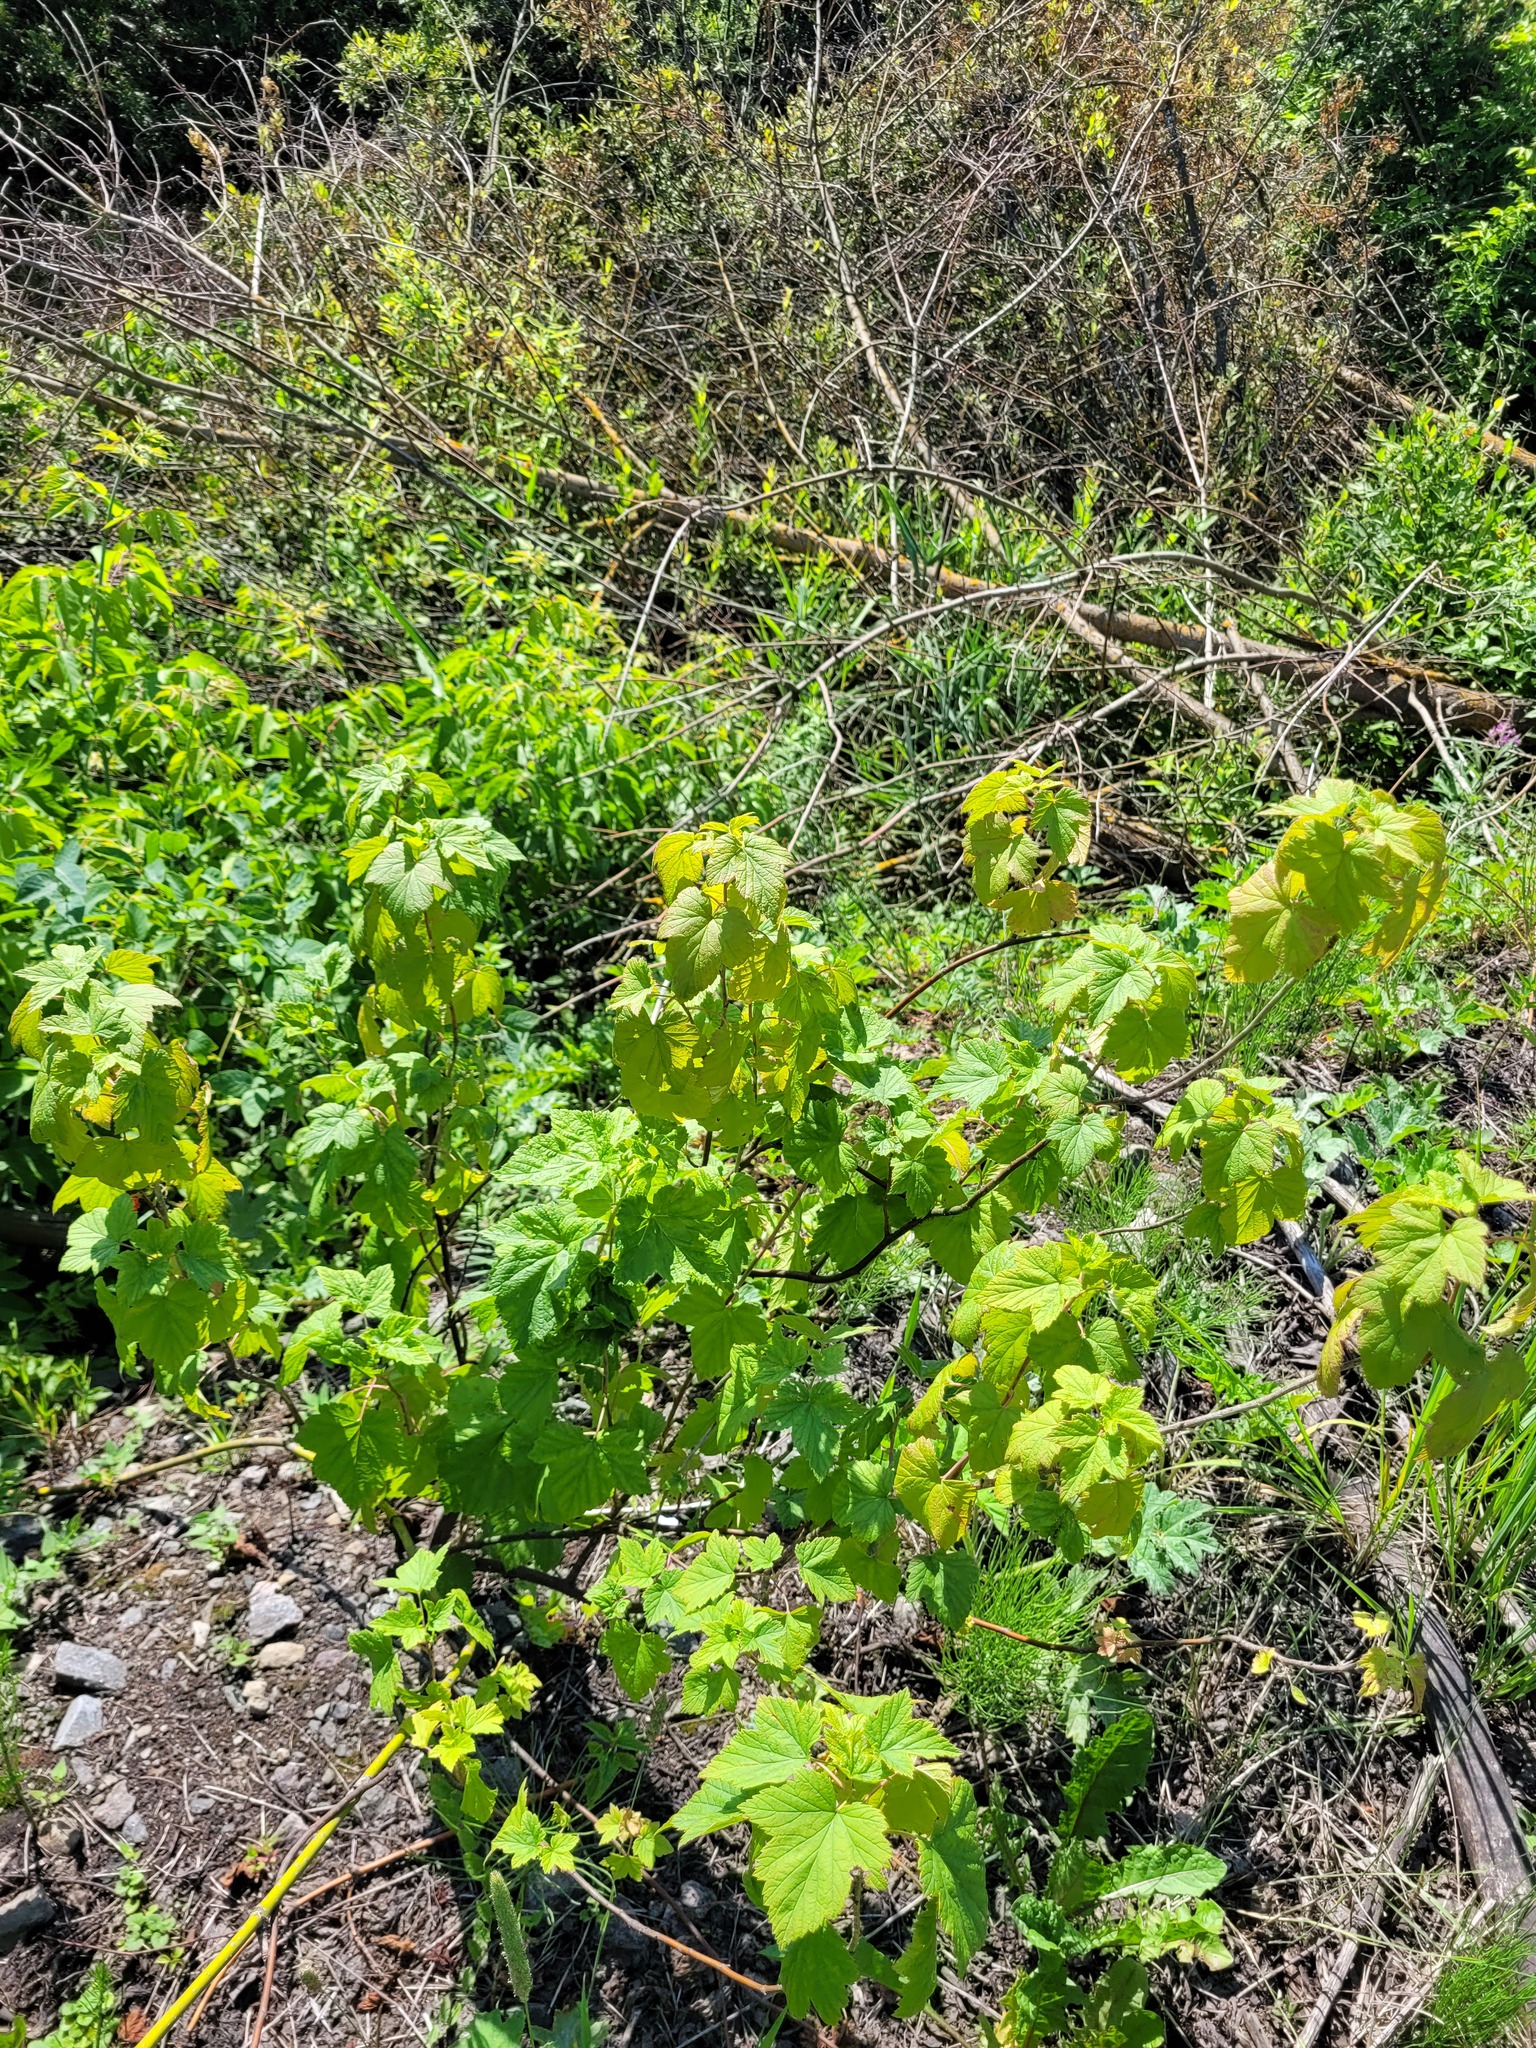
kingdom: Plantae
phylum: Tracheophyta
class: Magnoliopsida
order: Saxifragales
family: Grossulariaceae
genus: Ribes
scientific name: Ribes nigrum
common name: Black currant
